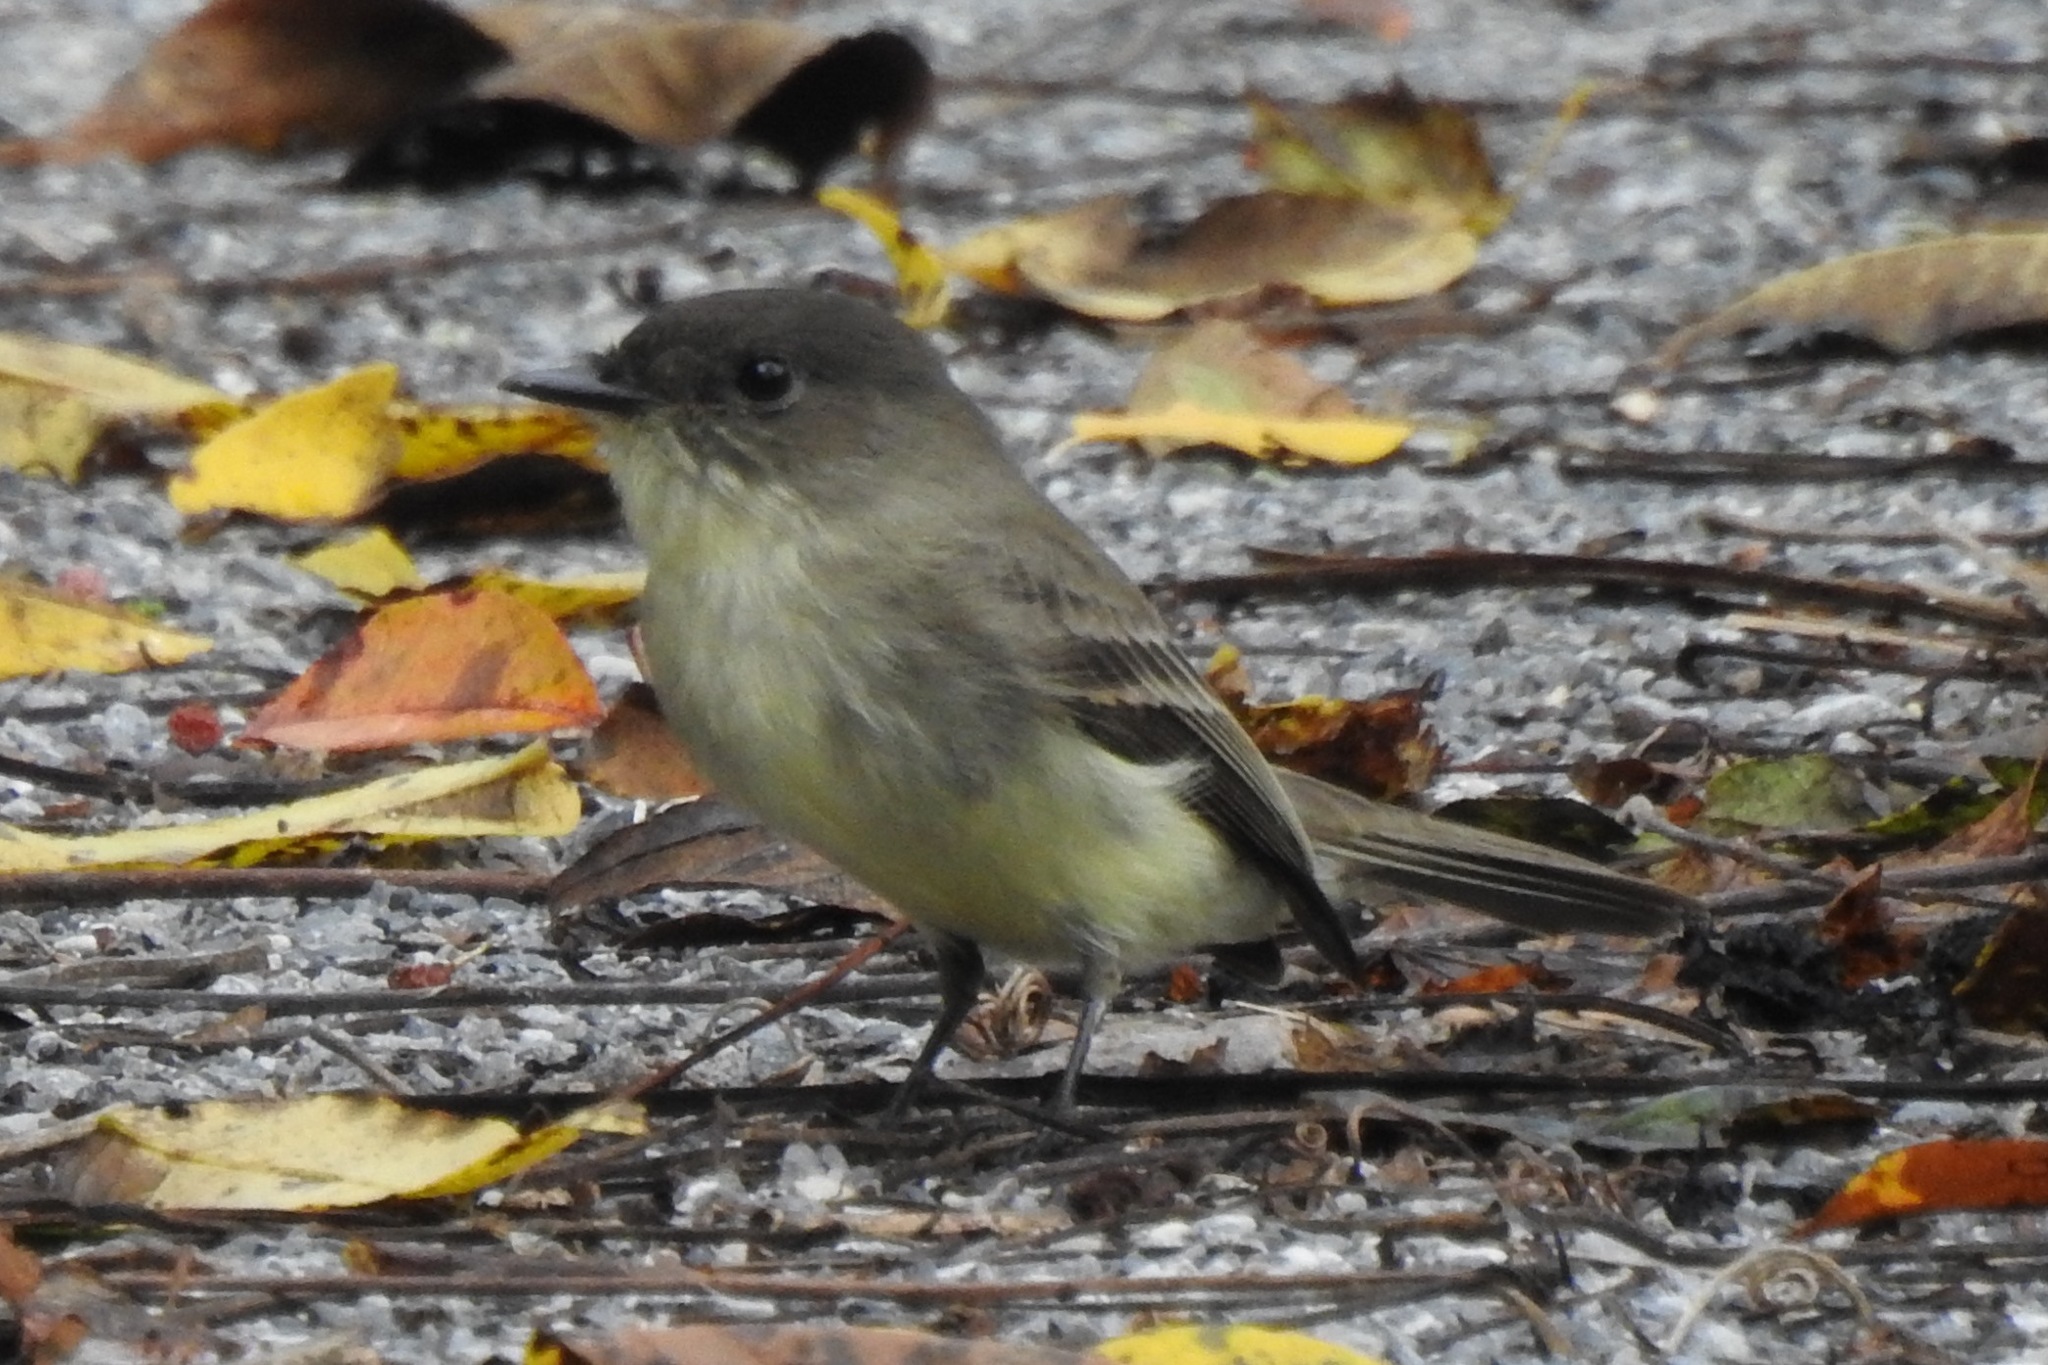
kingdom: Animalia
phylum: Chordata
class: Aves
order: Passeriformes
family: Tyrannidae
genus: Sayornis
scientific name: Sayornis phoebe
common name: Eastern phoebe
